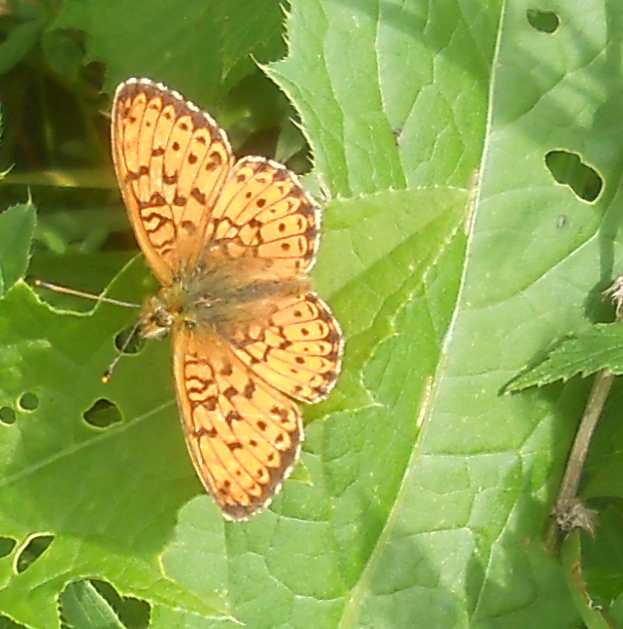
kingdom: Animalia
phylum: Arthropoda
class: Insecta
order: Lepidoptera
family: Nymphalidae
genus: Brenthis
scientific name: Brenthis ino
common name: Lesser marbled fritillary
